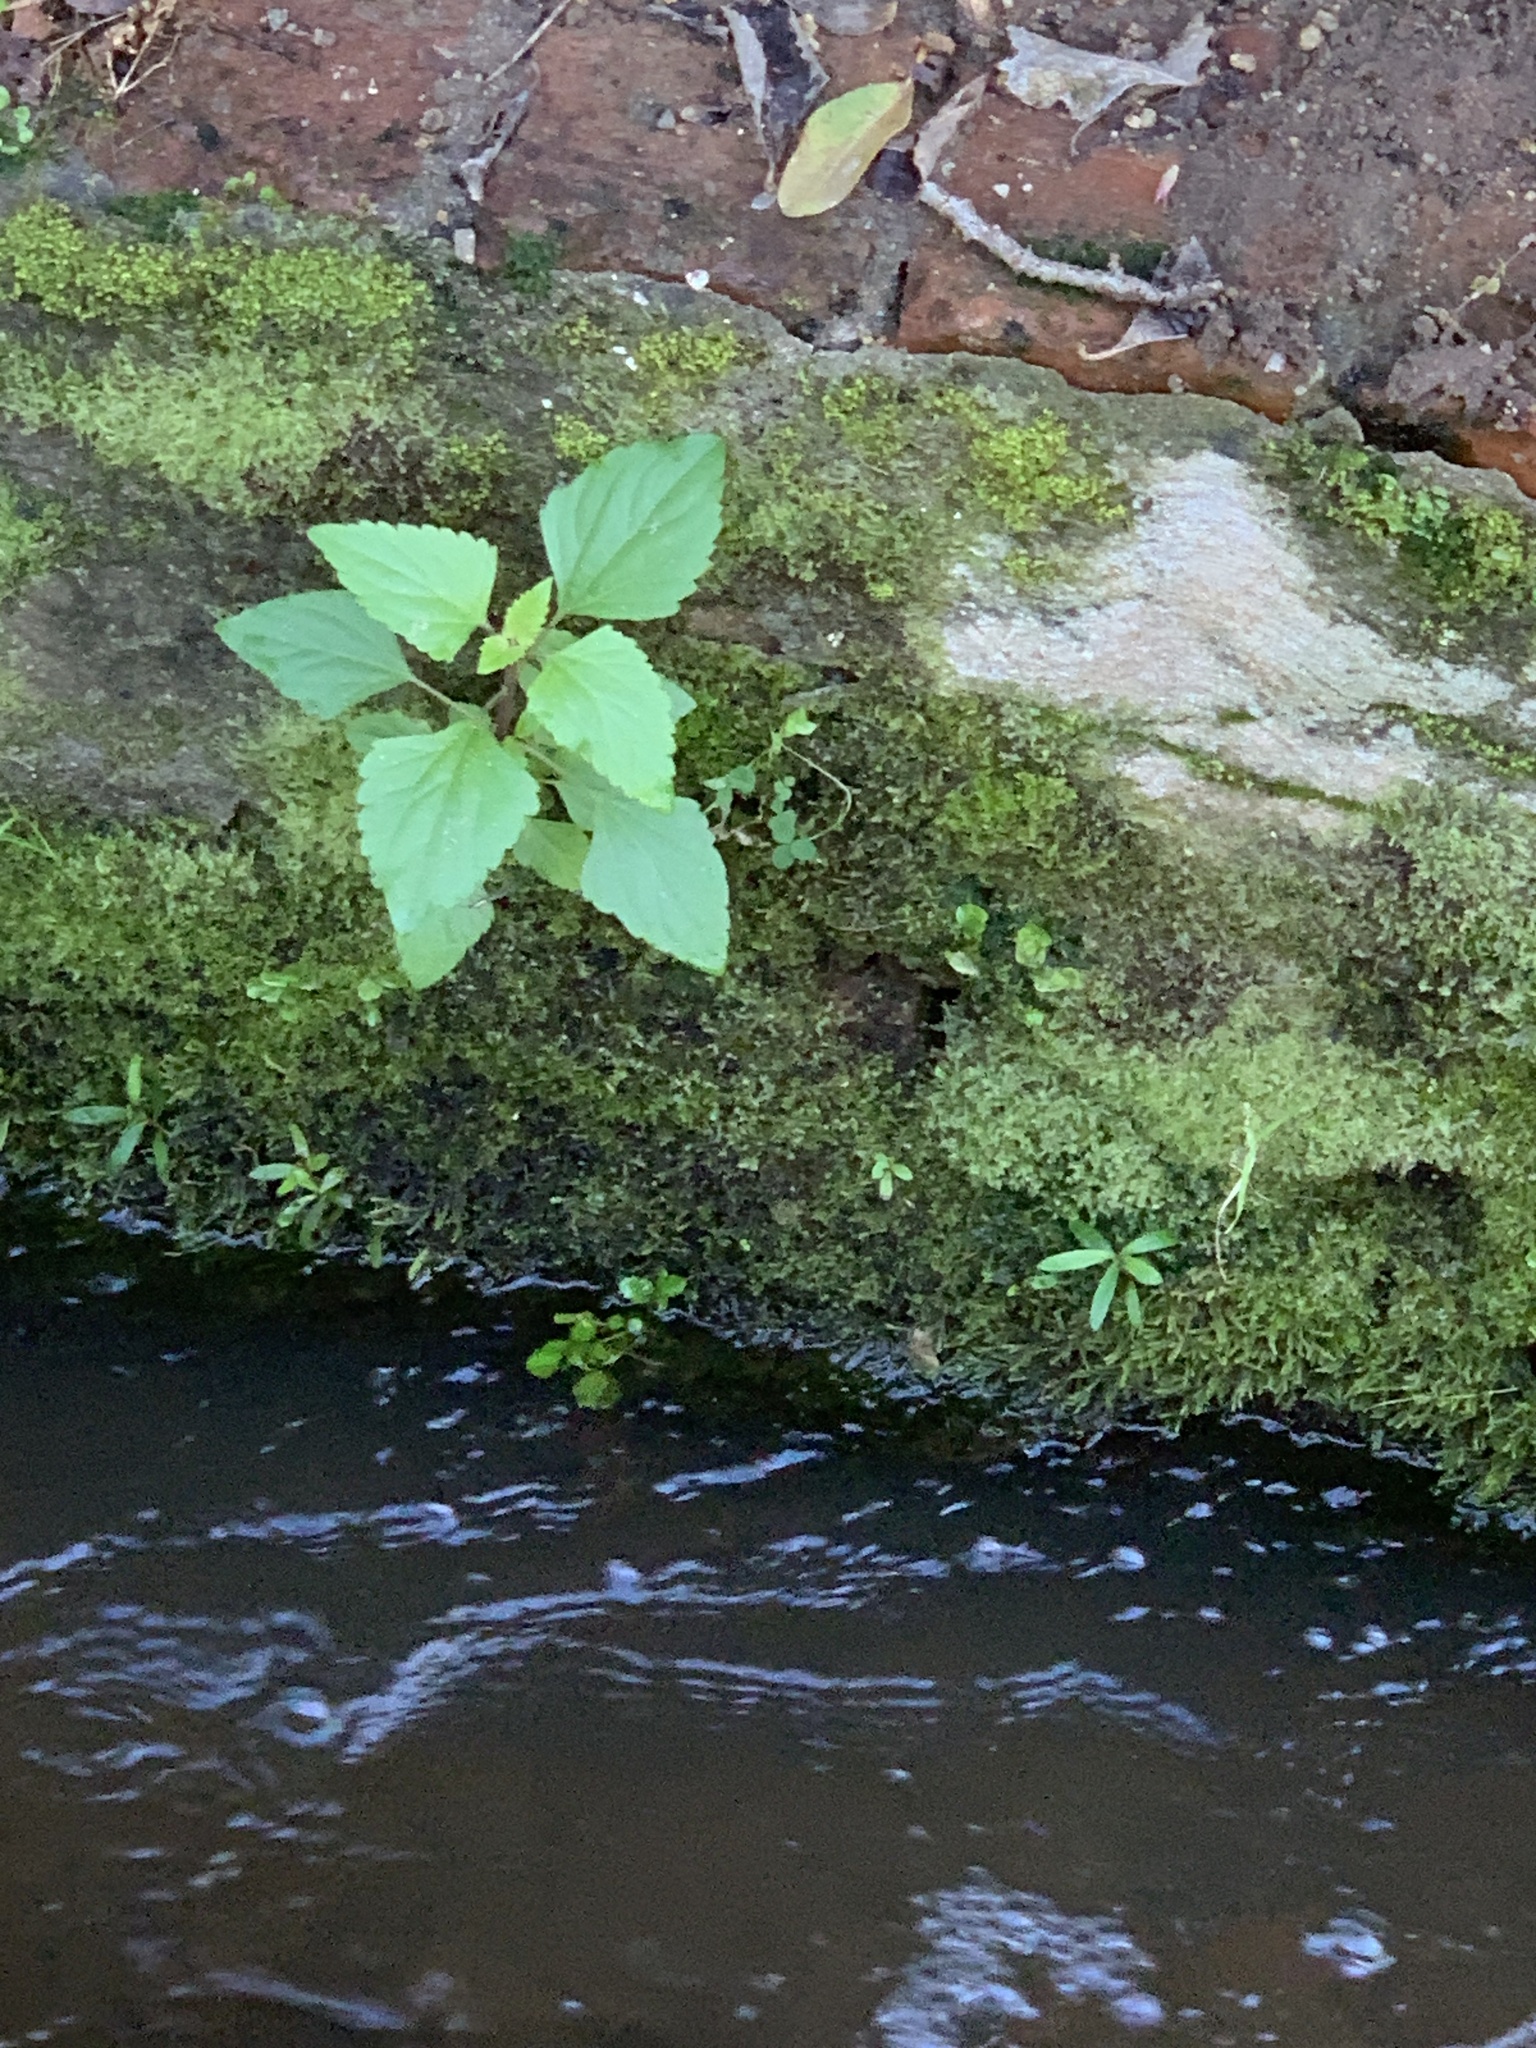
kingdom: Plantae
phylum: Tracheophyta
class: Magnoliopsida
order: Asterales
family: Asteraceae
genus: Ageratina
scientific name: Ageratina adenophora
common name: Sticky snakeroot
